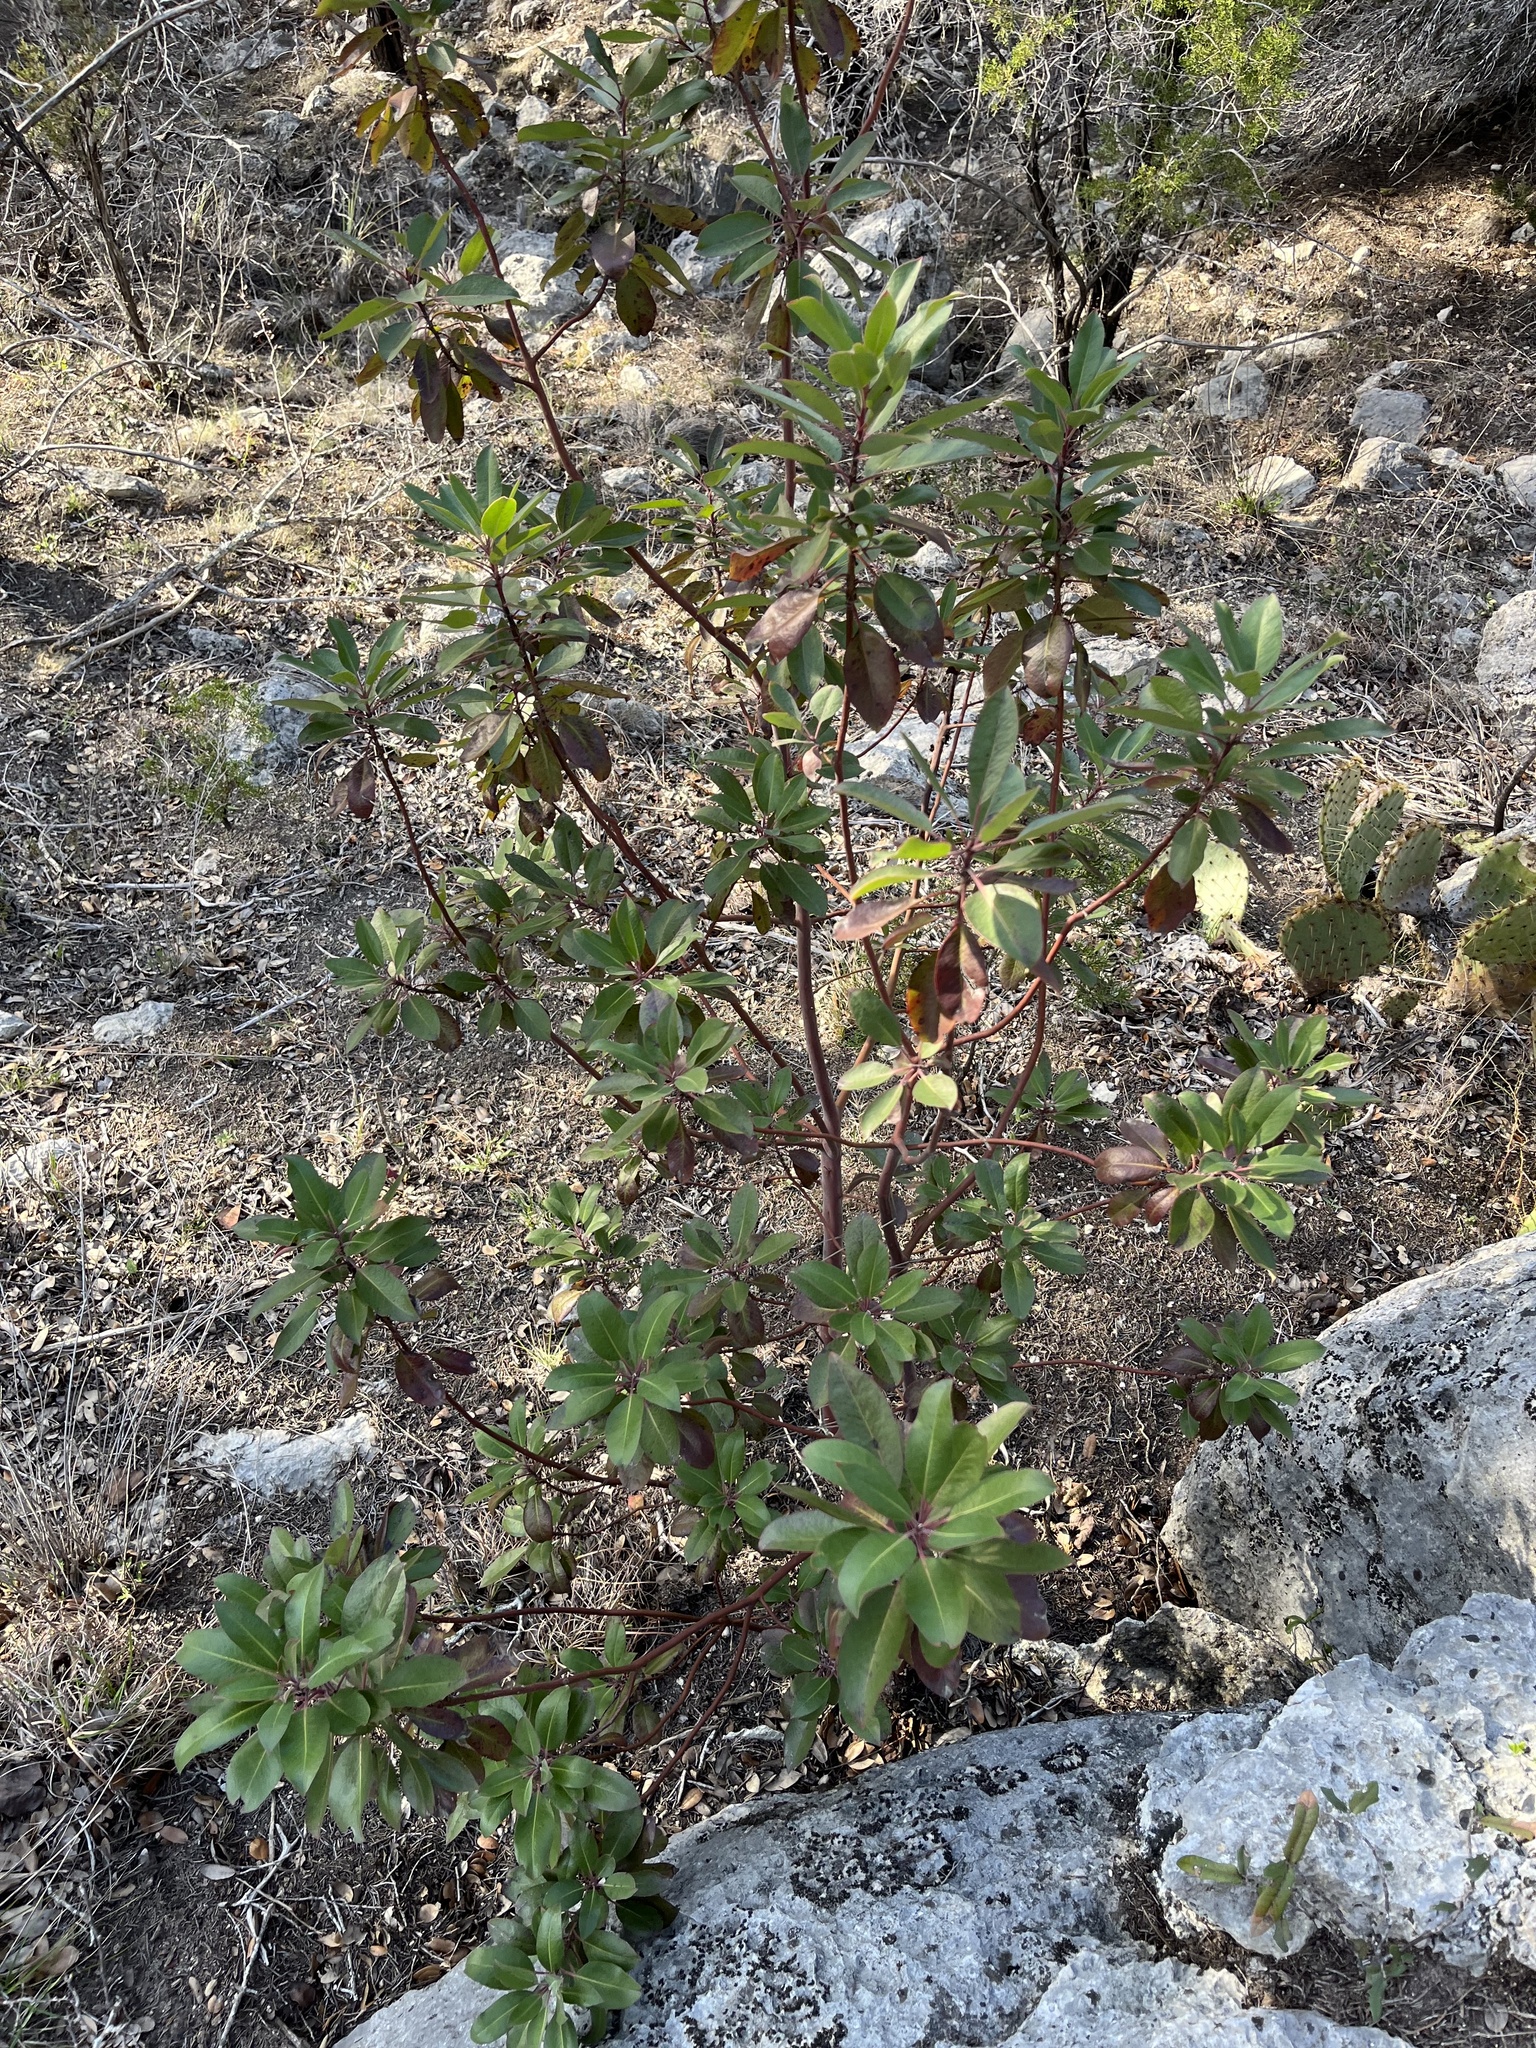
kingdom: Plantae
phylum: Tracheophyta
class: Magnoliopsida
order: Ericales
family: Ericaceae
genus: Arbutus
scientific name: Arbutus xalapensis
